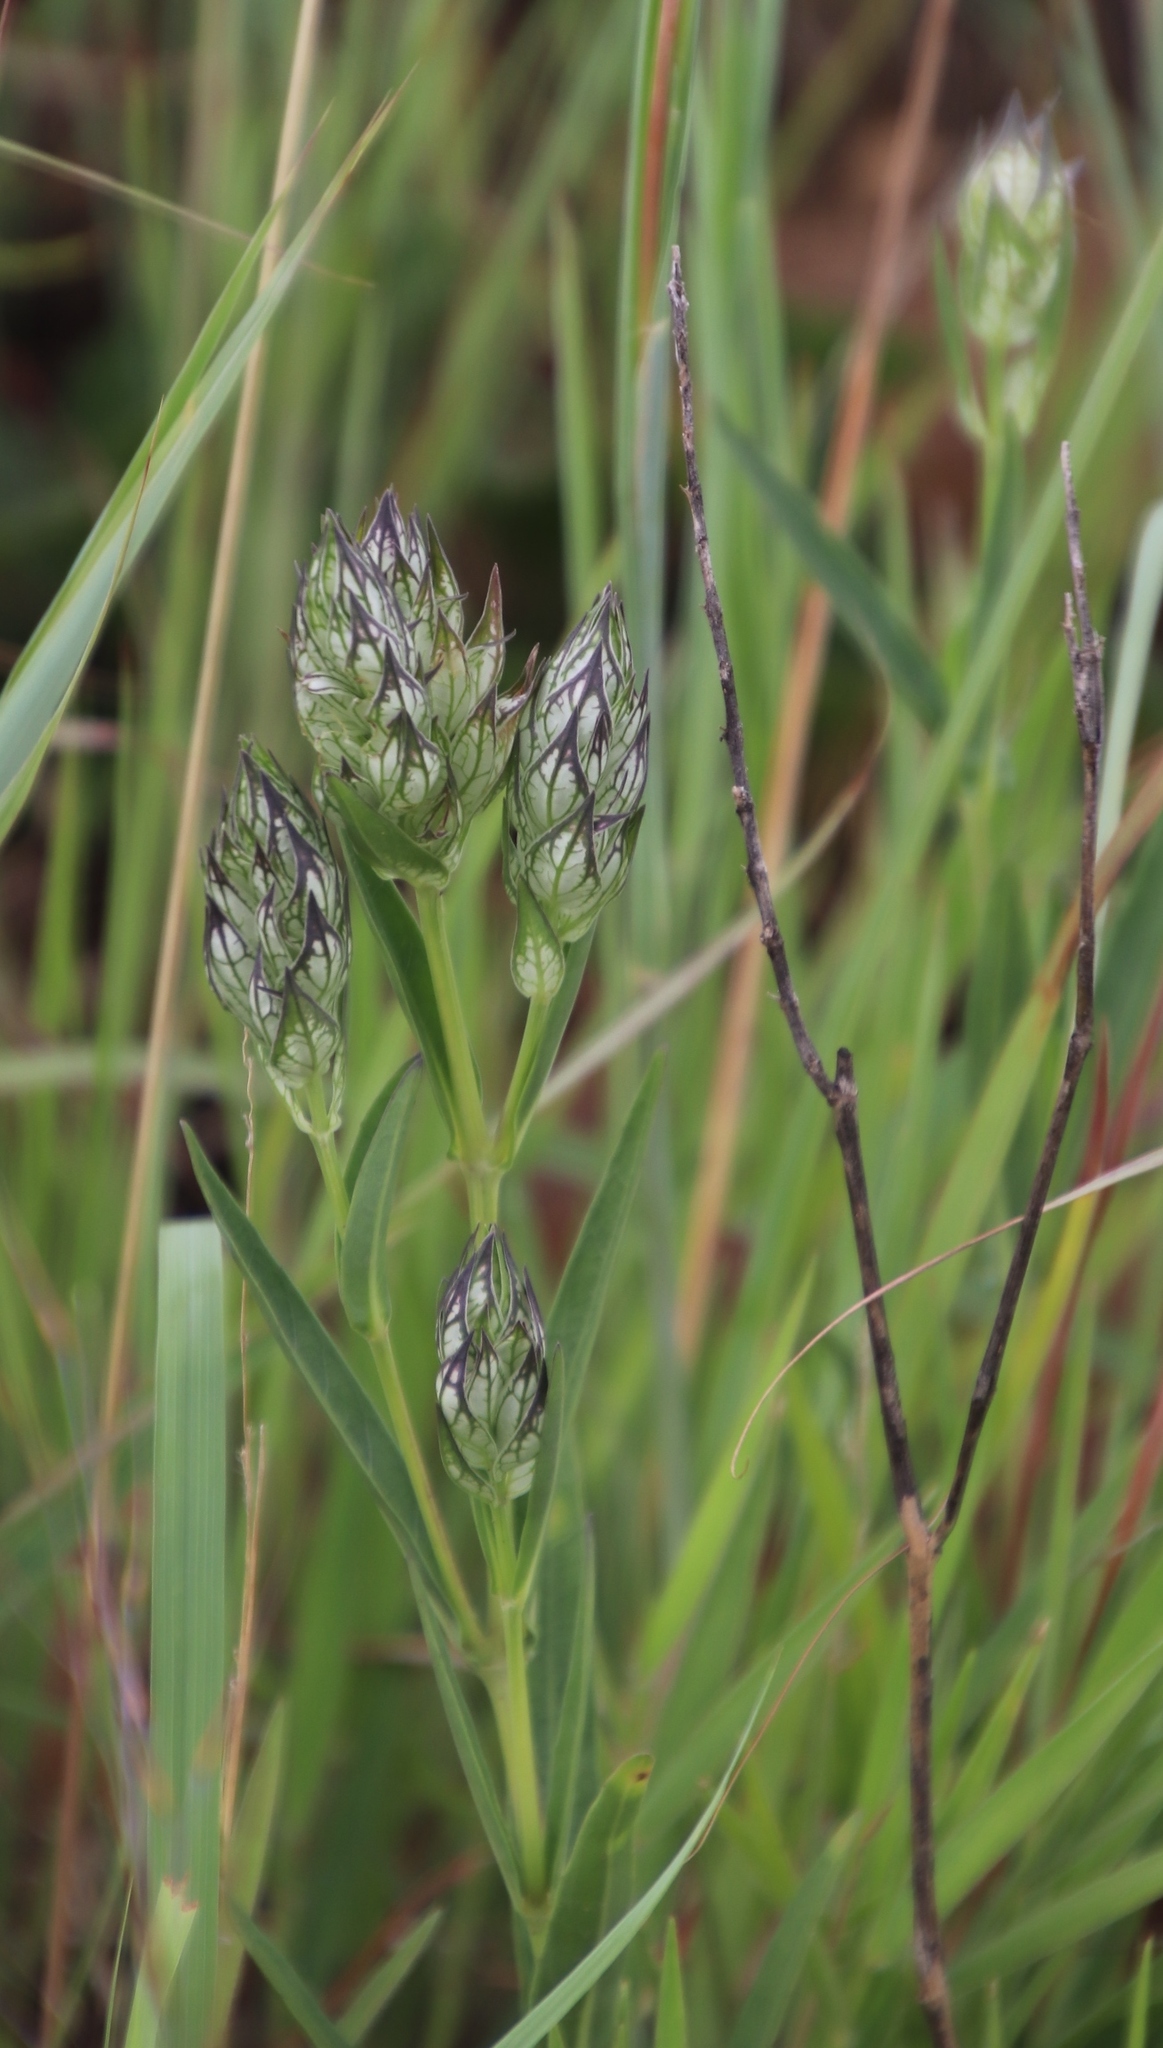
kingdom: Plantae
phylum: Tracheophyta
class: Magnoliopsida
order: Lamiales
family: Acanthaceae
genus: Justicia
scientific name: Justicia betonica
